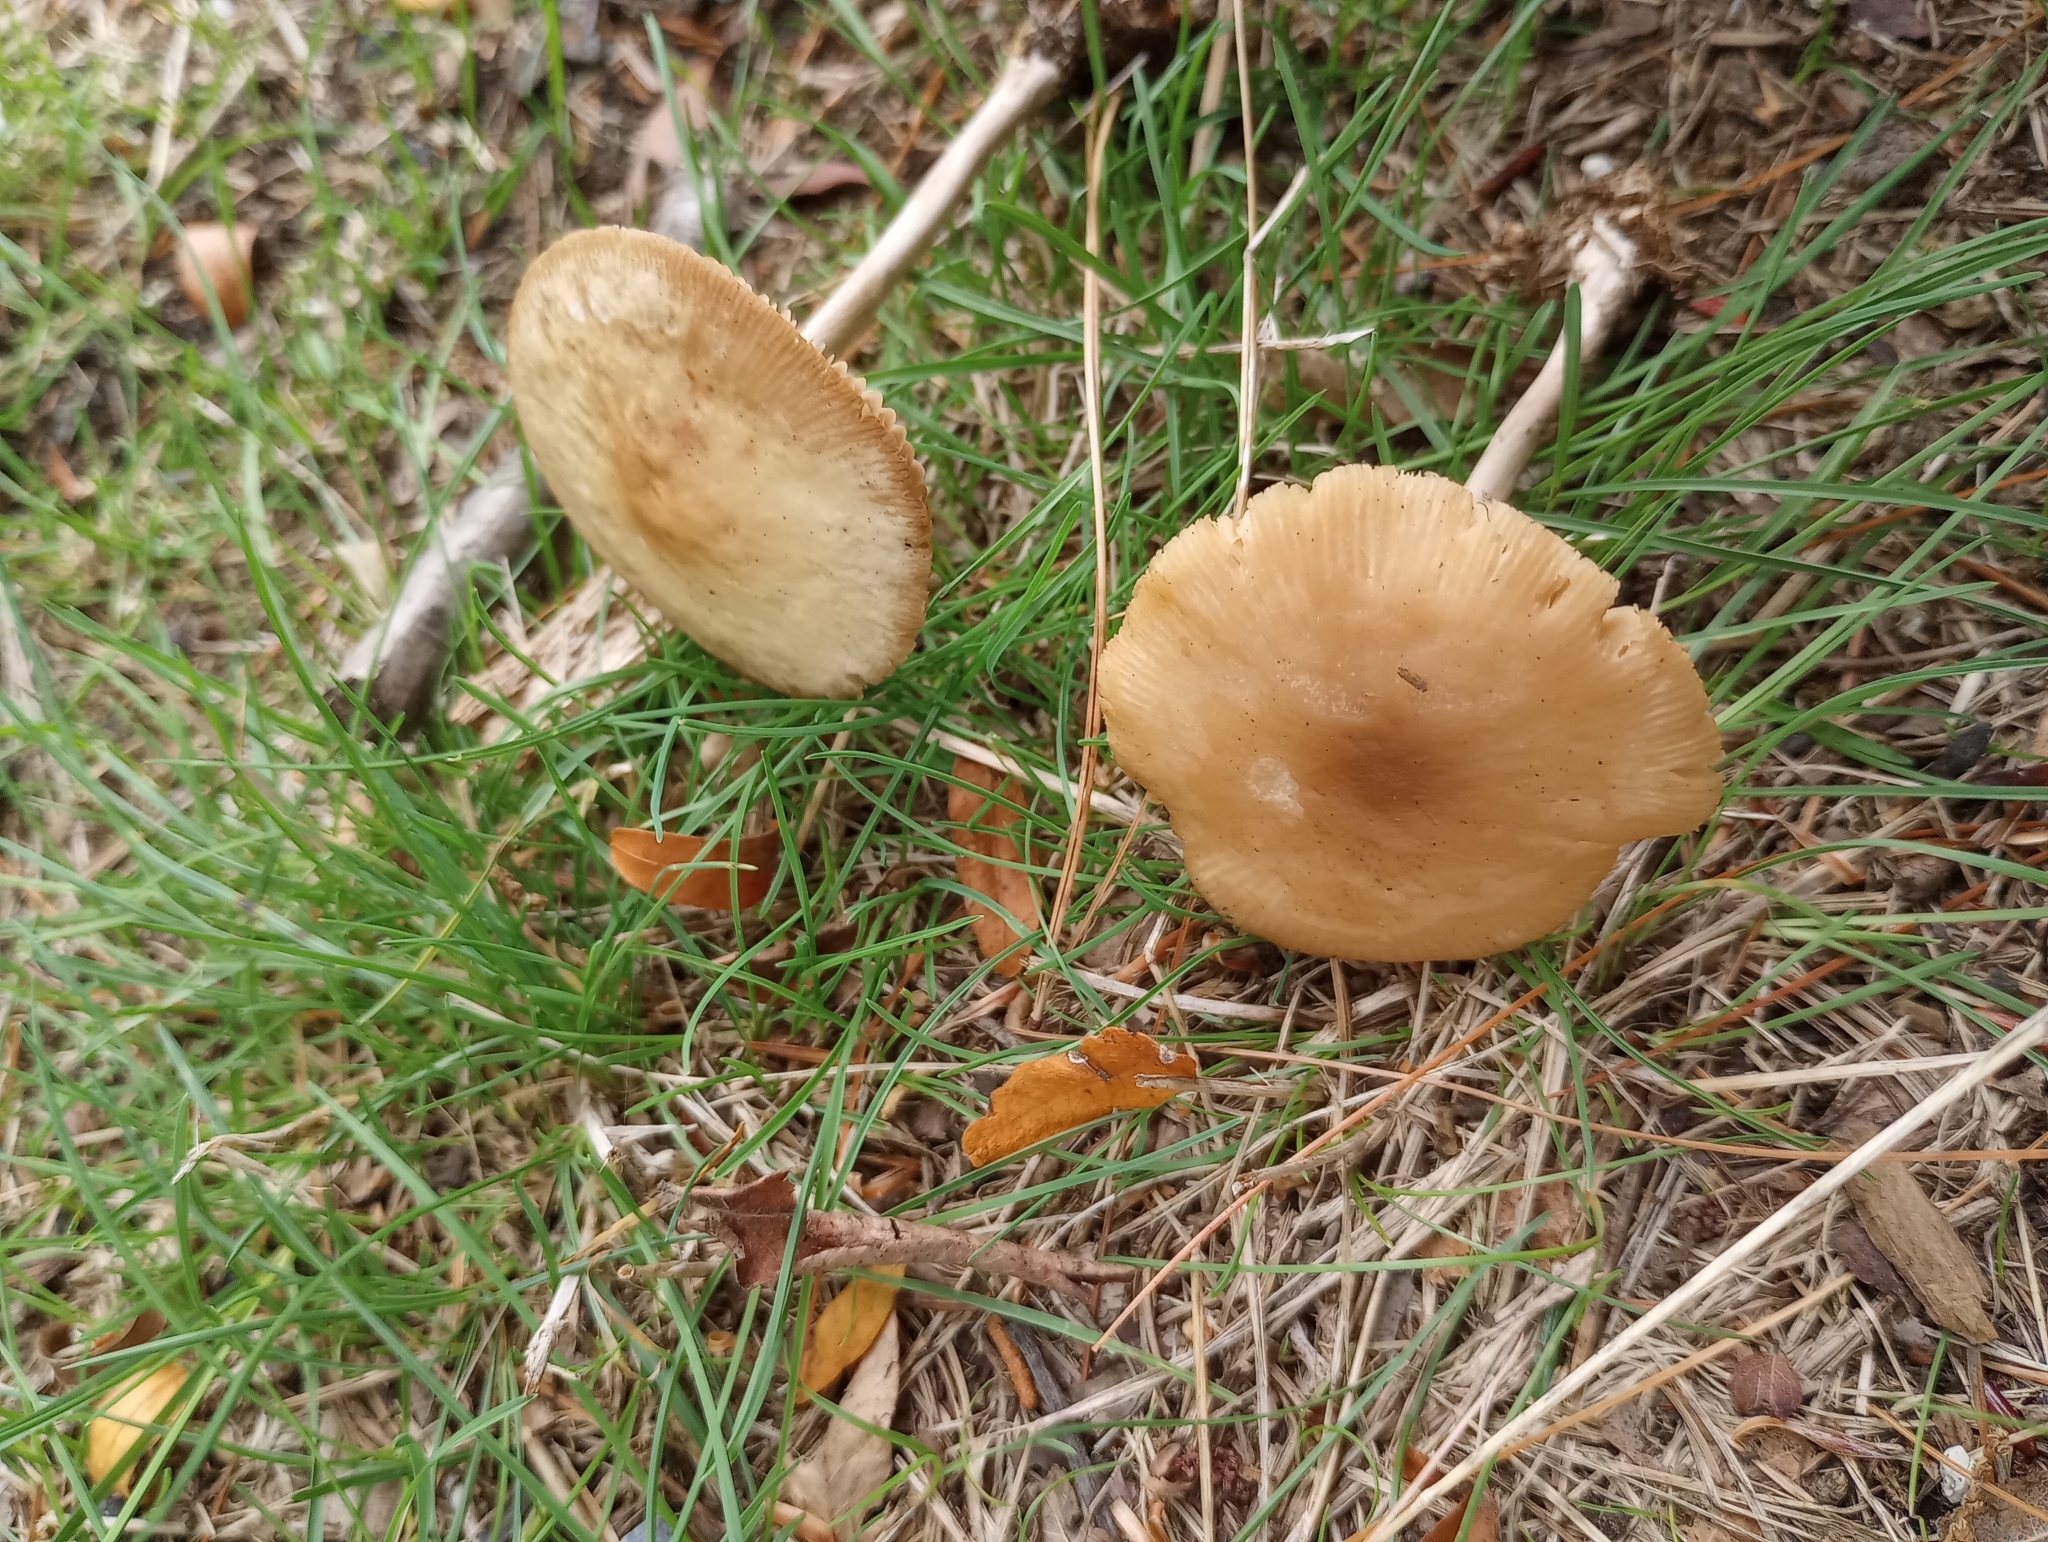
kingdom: Fungi
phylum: Basidiomycota
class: Agaricomycetes
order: Agaricales
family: Marasmiaceae
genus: Marasmius
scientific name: Marasmius nigrodiscus
